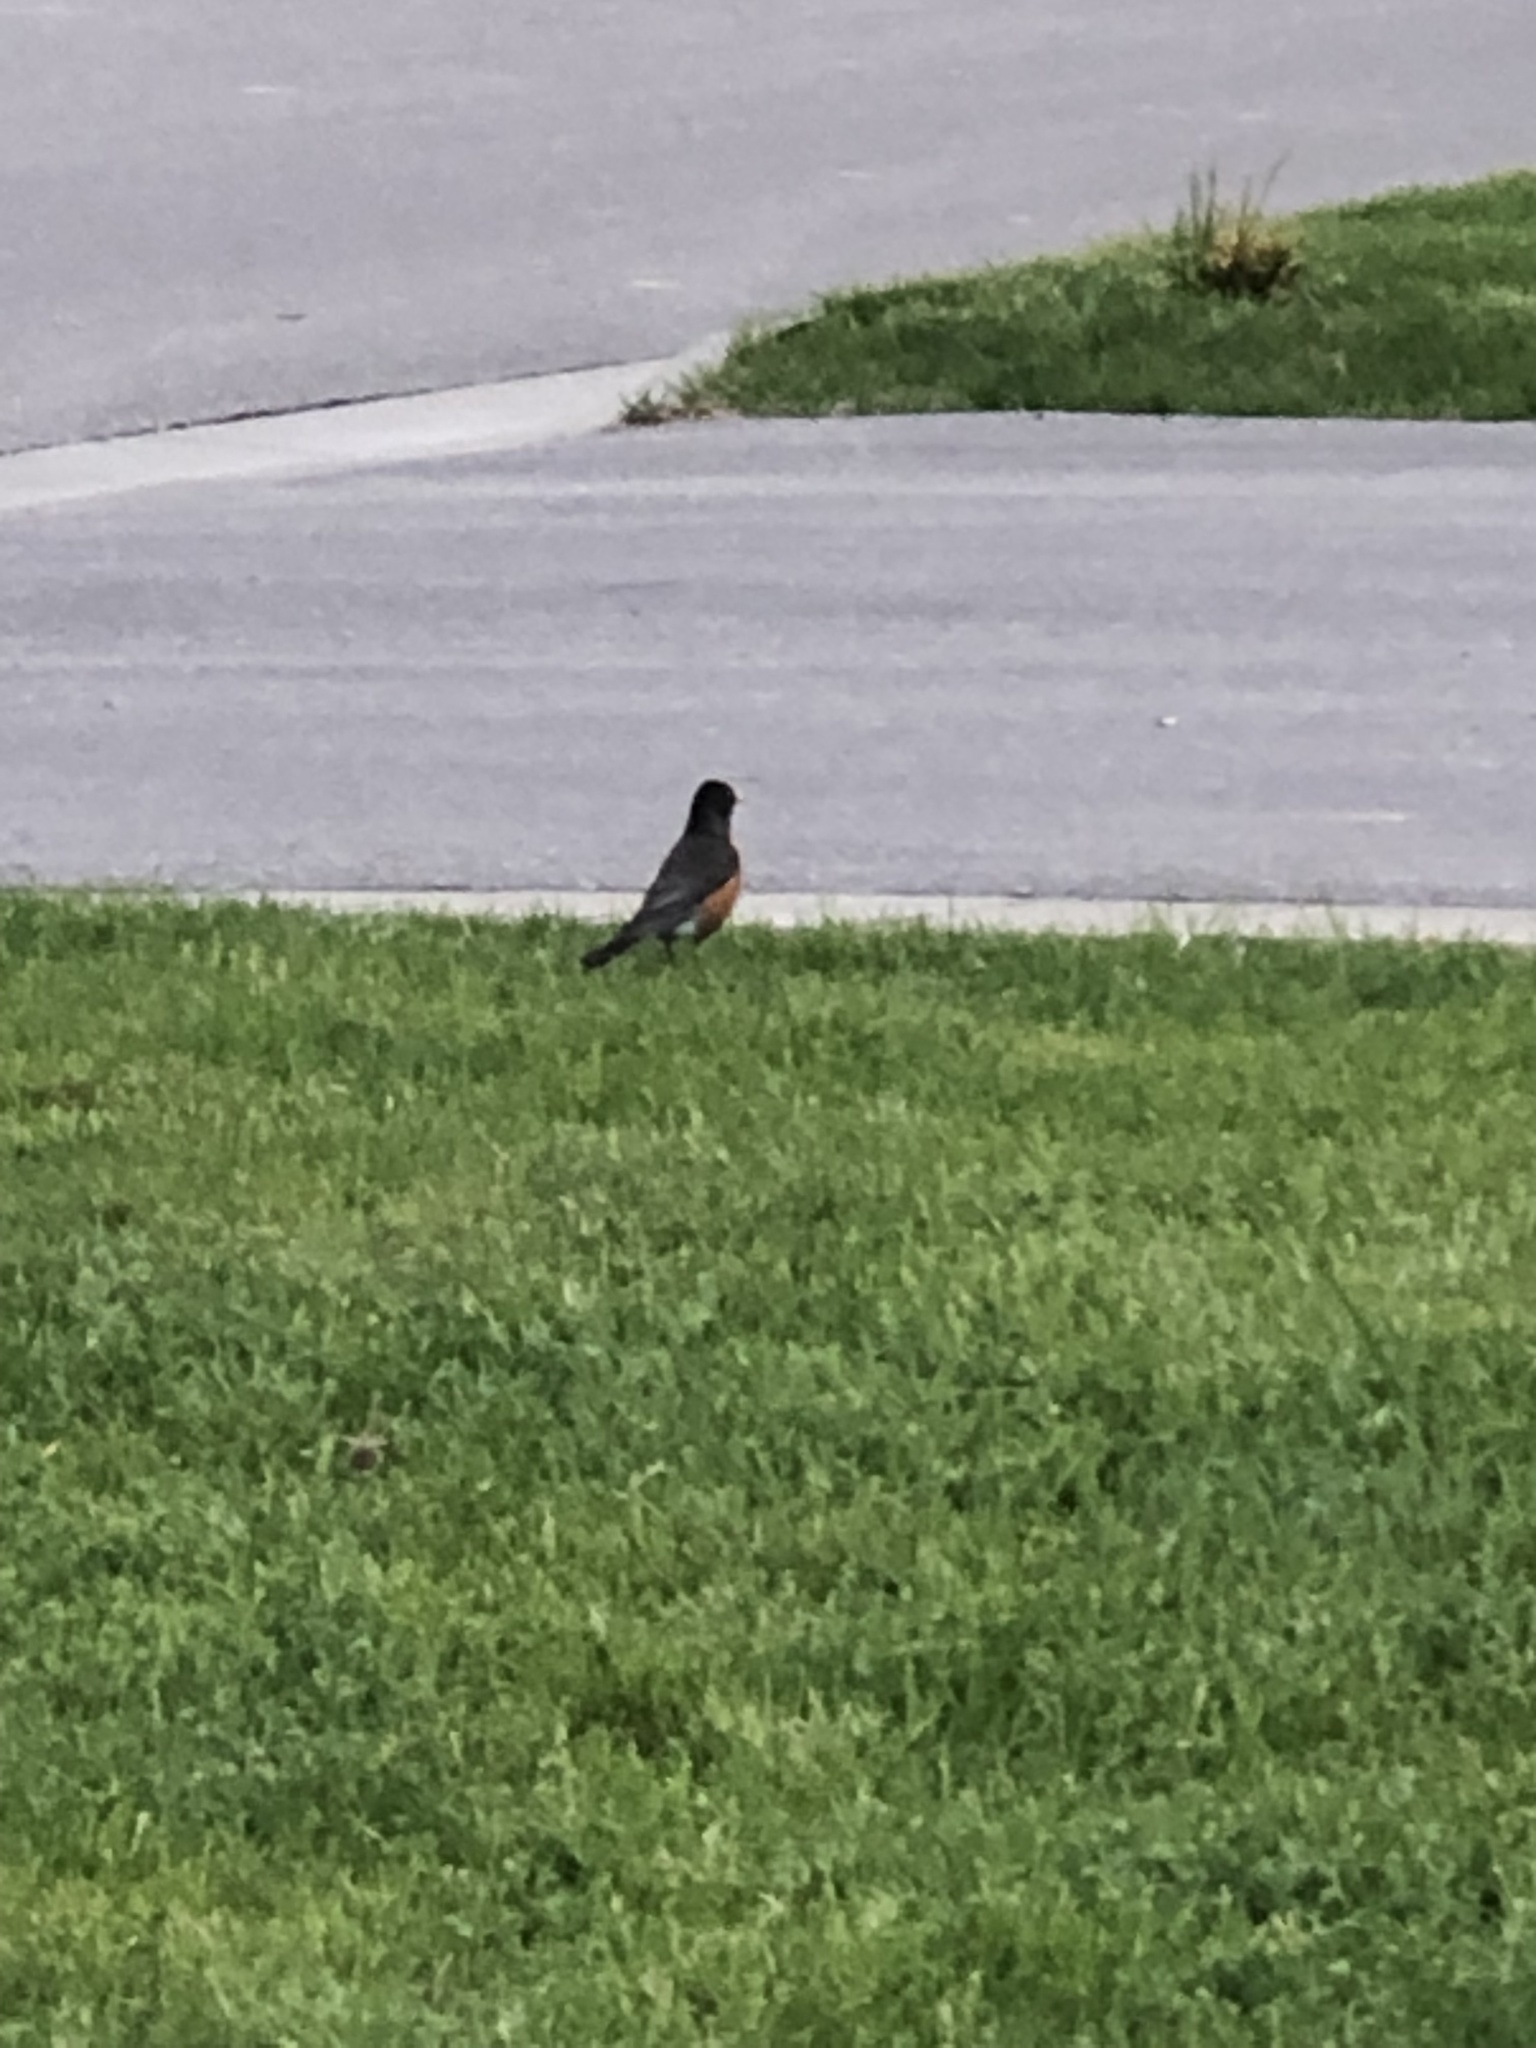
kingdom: Animalia
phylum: Chordata
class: Aves
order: Passeriformes
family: Turdidae
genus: Turdus
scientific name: Turdus migratorius
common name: American robin
